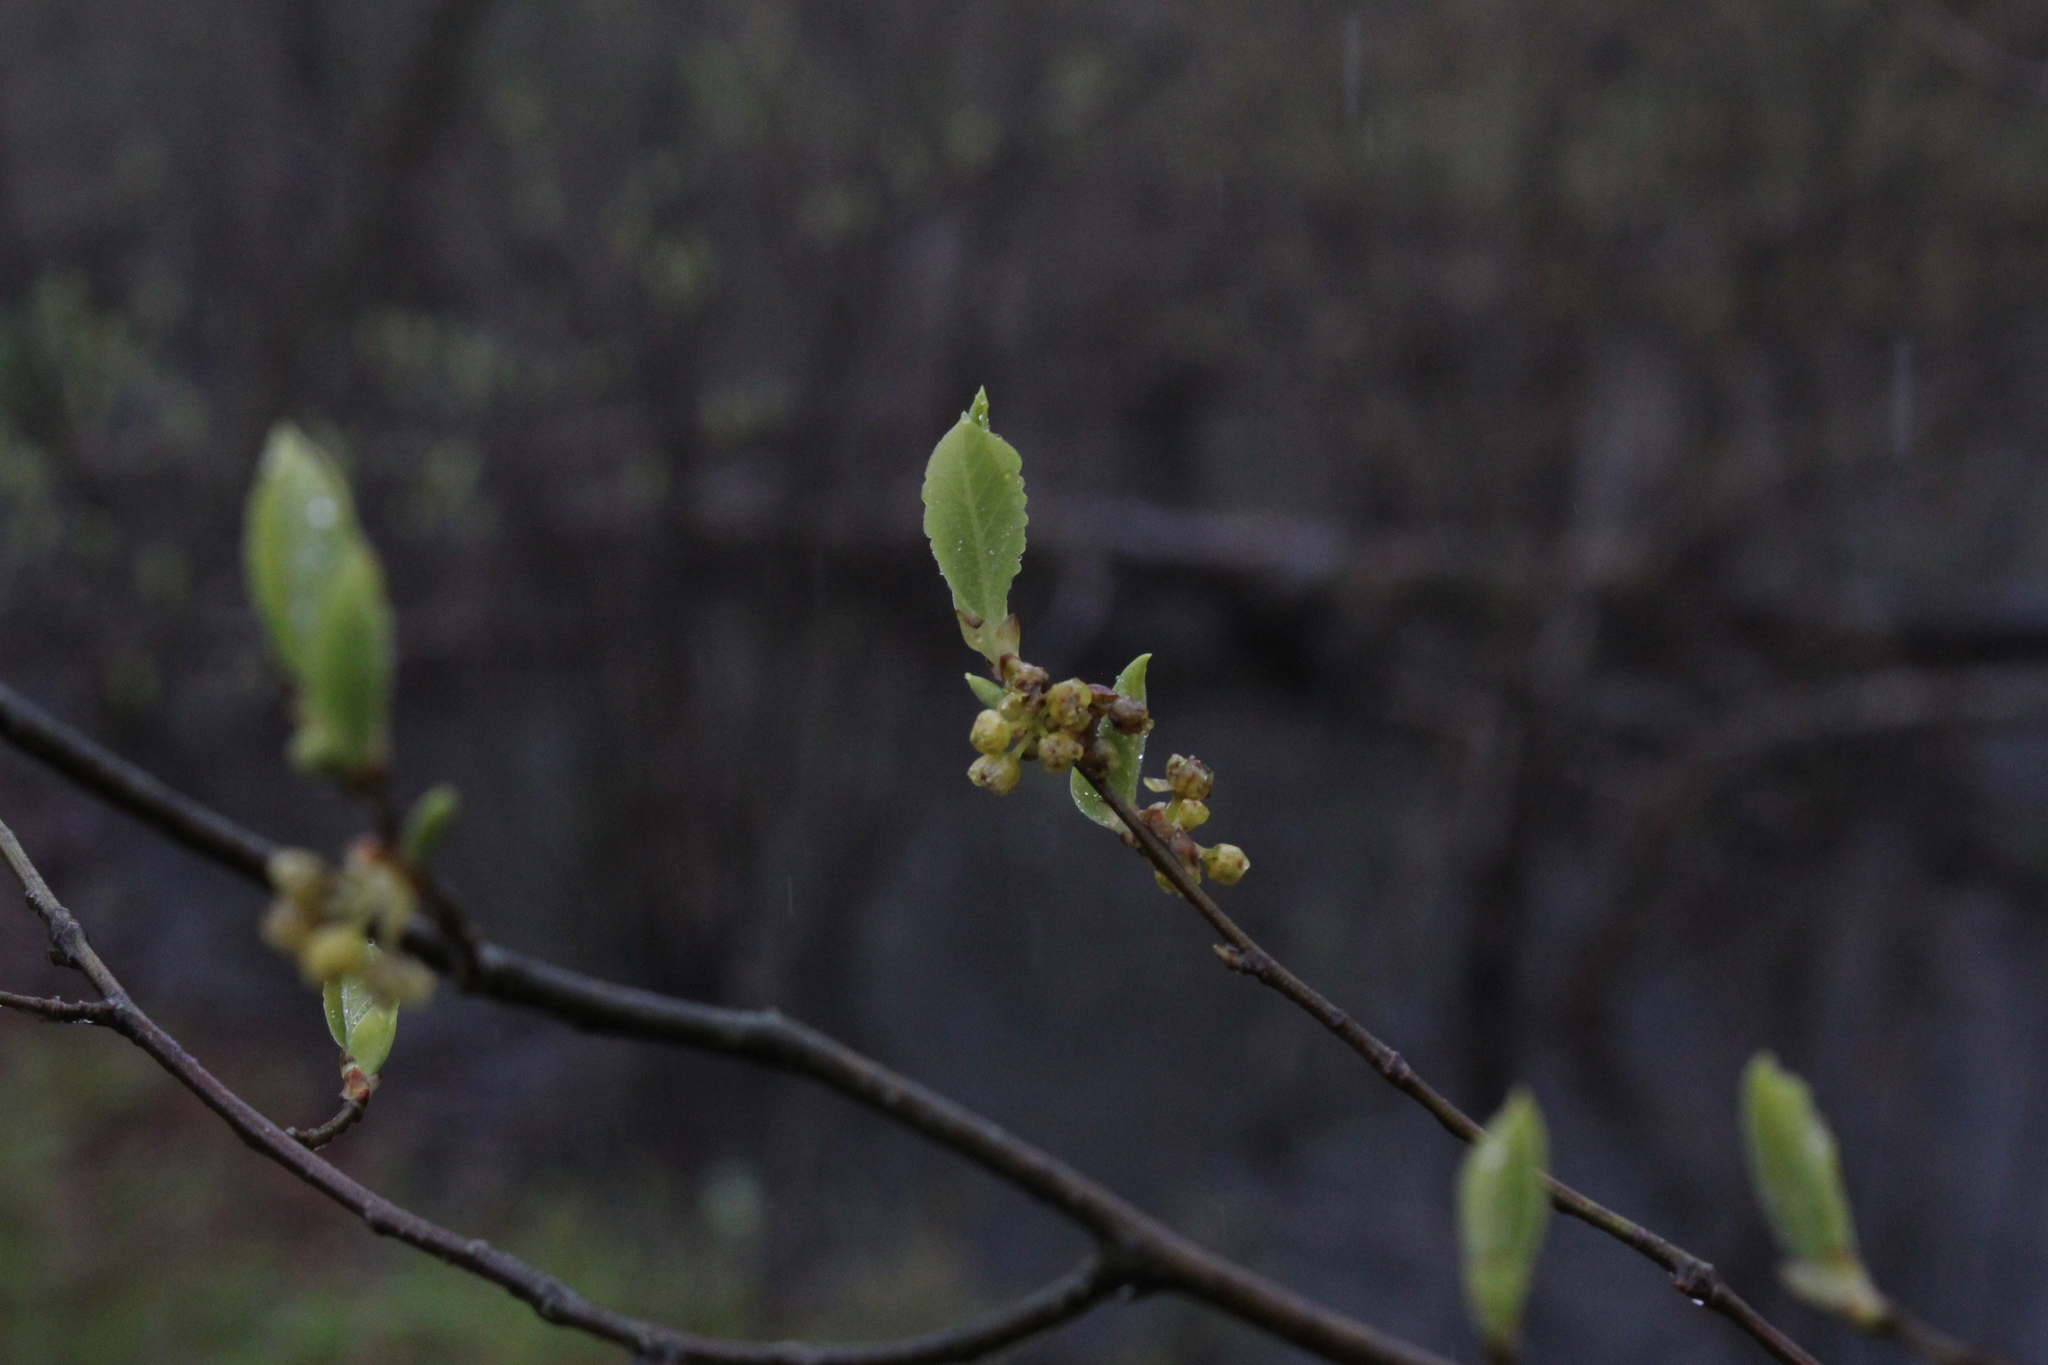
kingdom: Plantae
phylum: Tracheophyta
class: Magnoliopsida
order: Laurales
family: Lauraceae
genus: Lindera
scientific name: Lindera benzoin
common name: Spicebush
